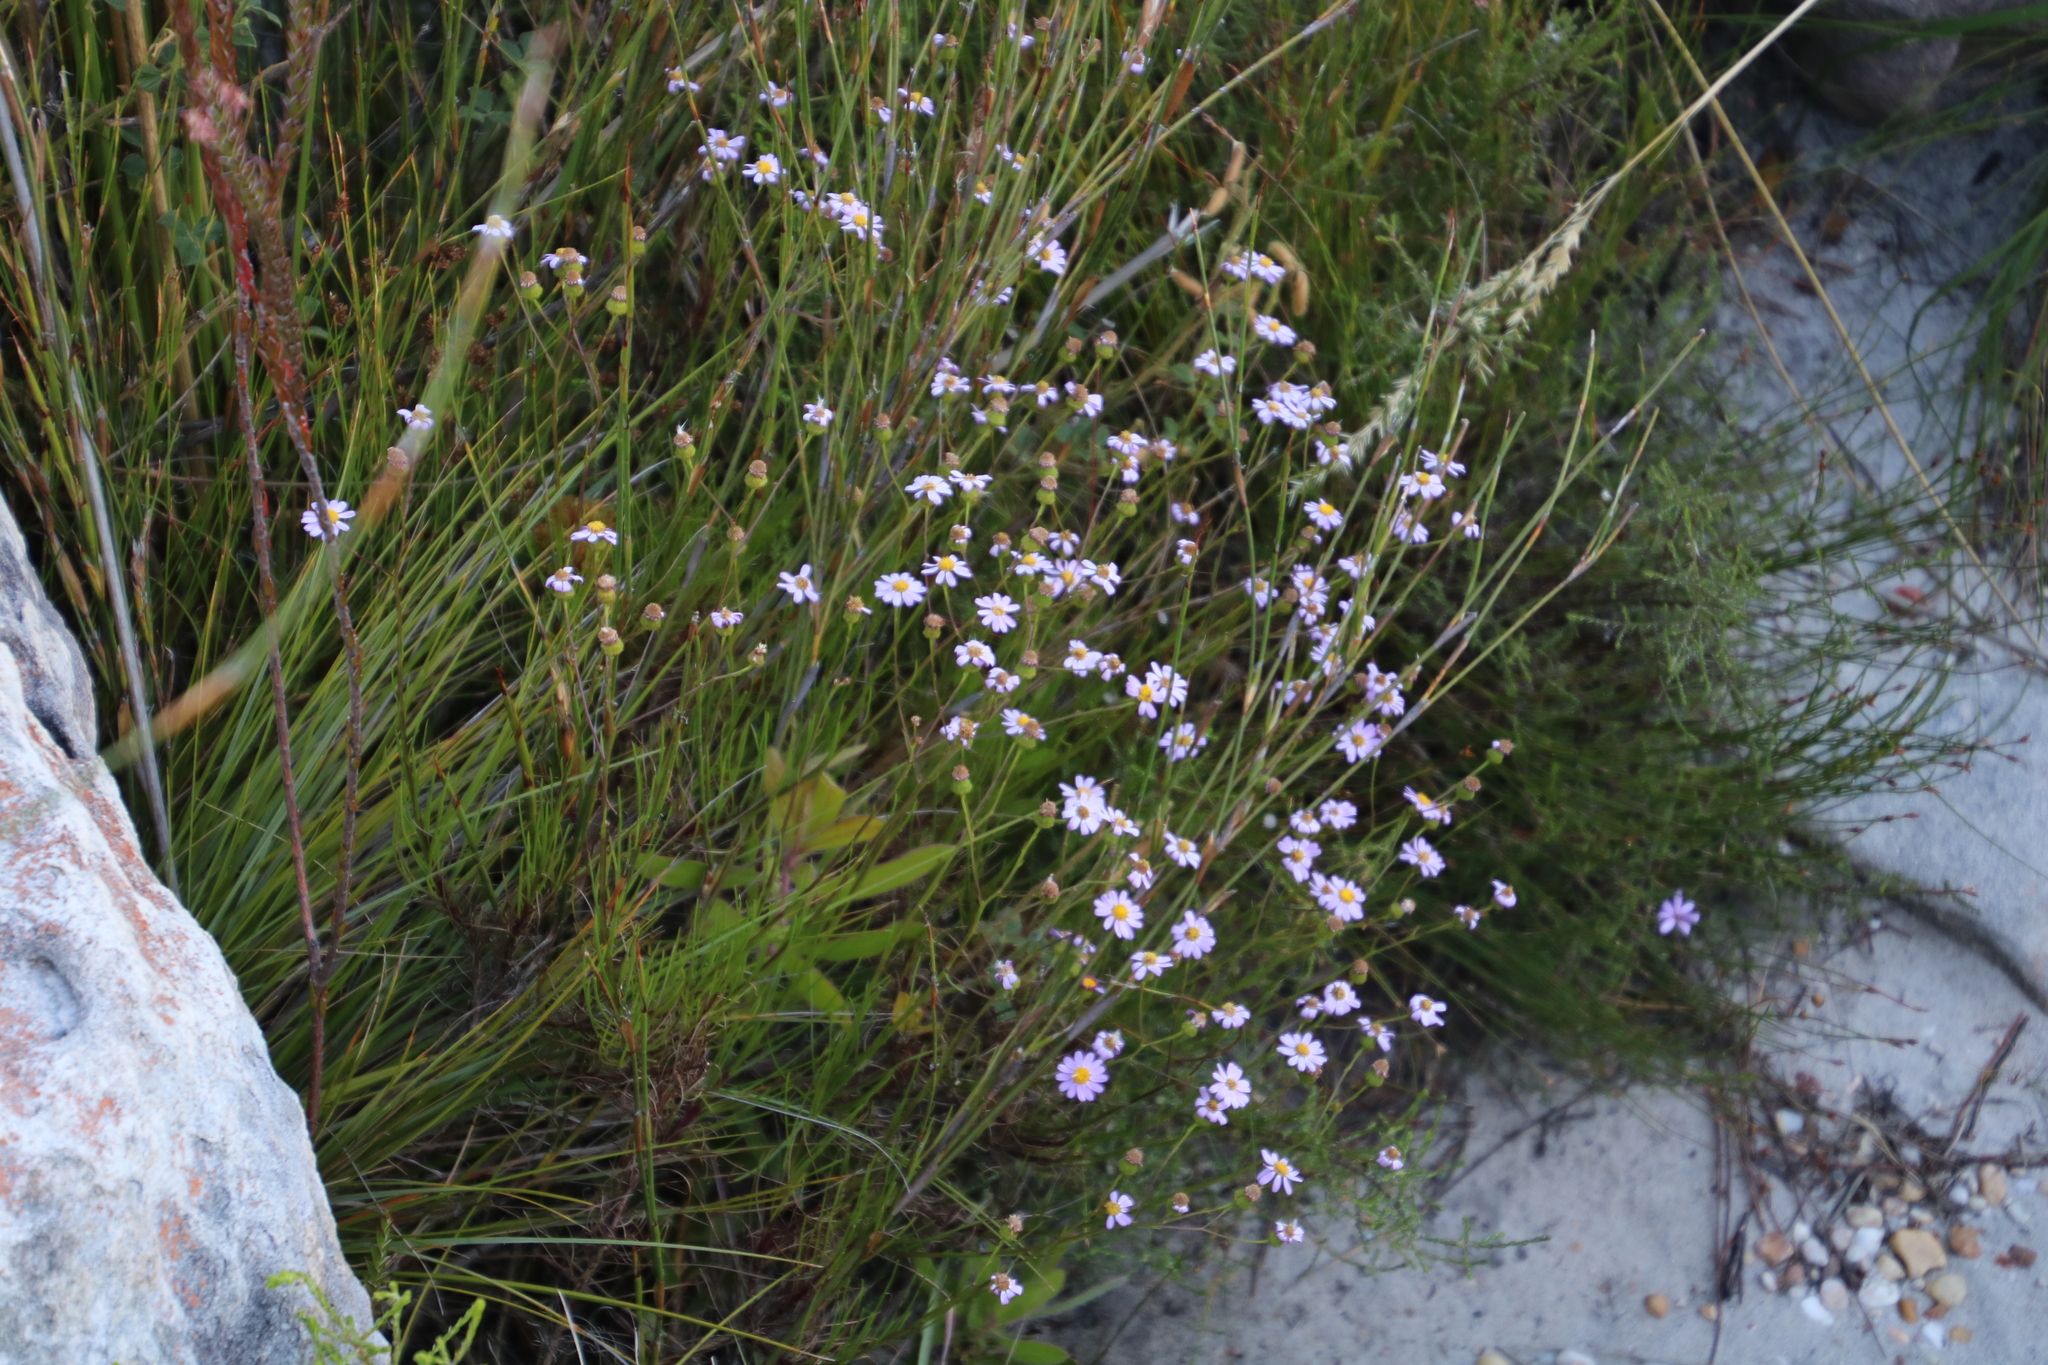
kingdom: Plantae
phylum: Tracheophyta
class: Magnoliopsida
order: Asterales
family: Asteraceae
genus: Senecio
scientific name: Senecio umbellatus
